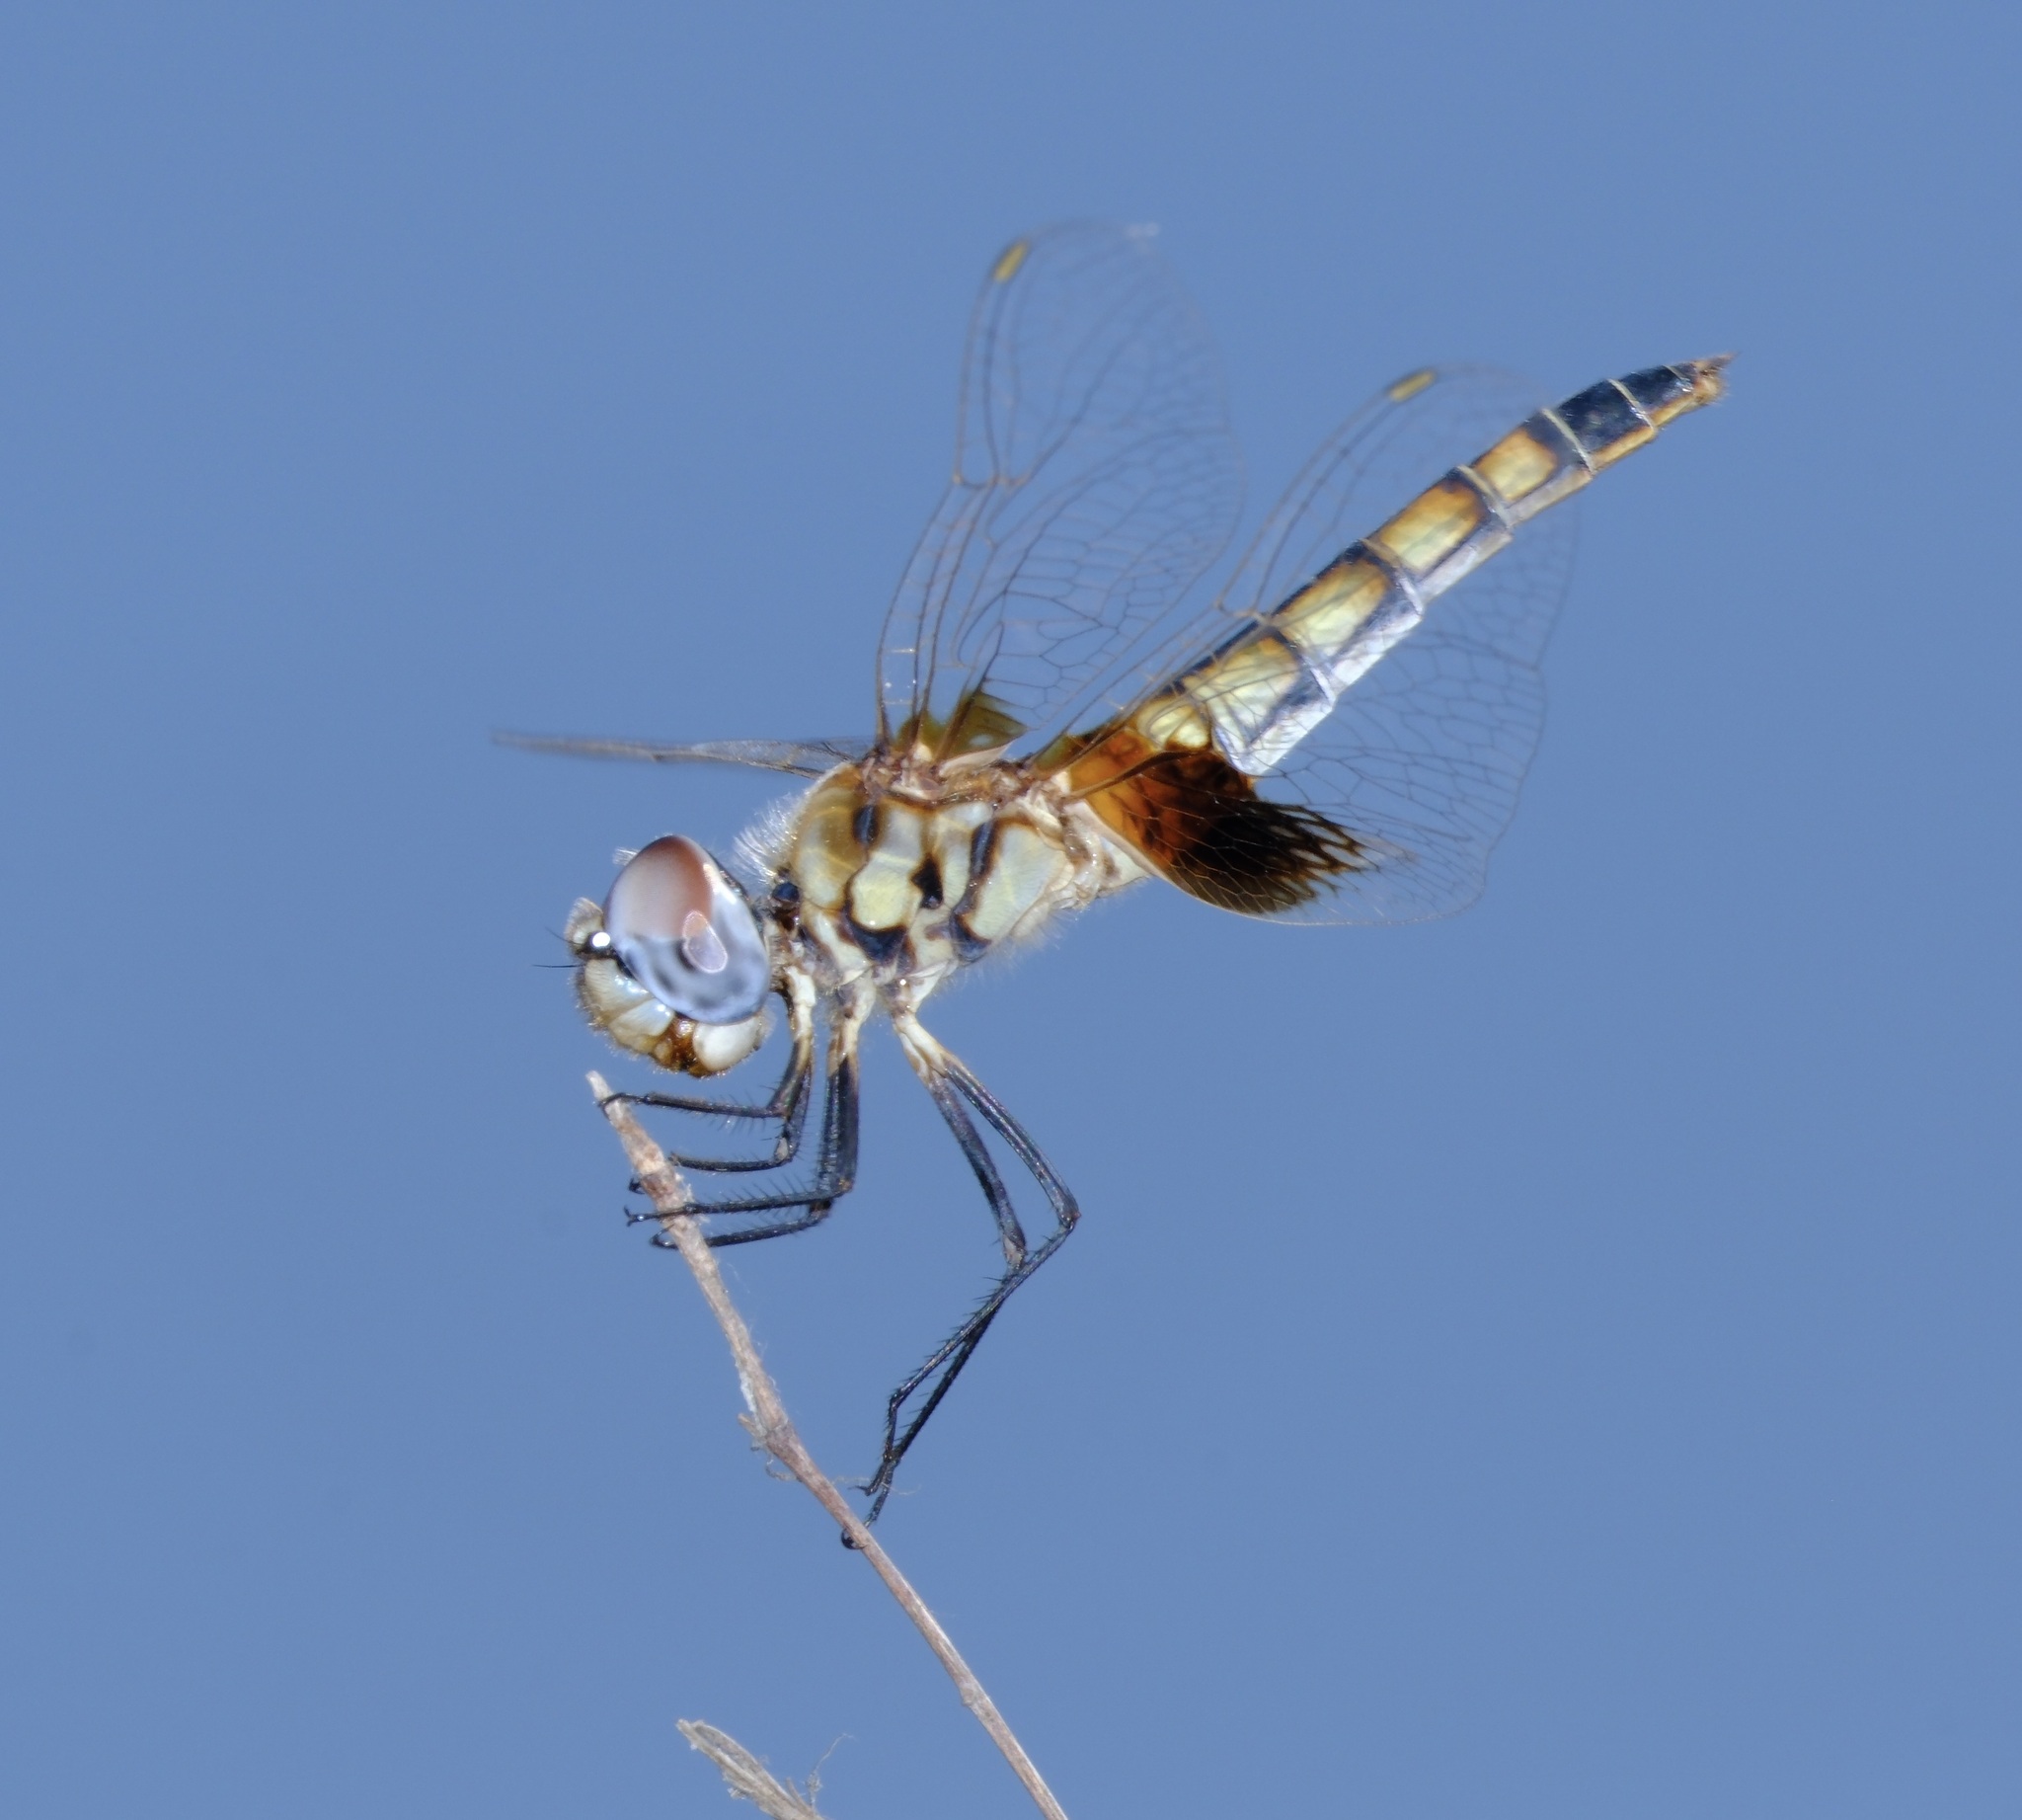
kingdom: Animalia
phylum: Arthropoda
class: Insecta
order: Odonata
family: Libellulidae
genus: Macrodiplax
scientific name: Macrodiplax balteata
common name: Marl pennant
